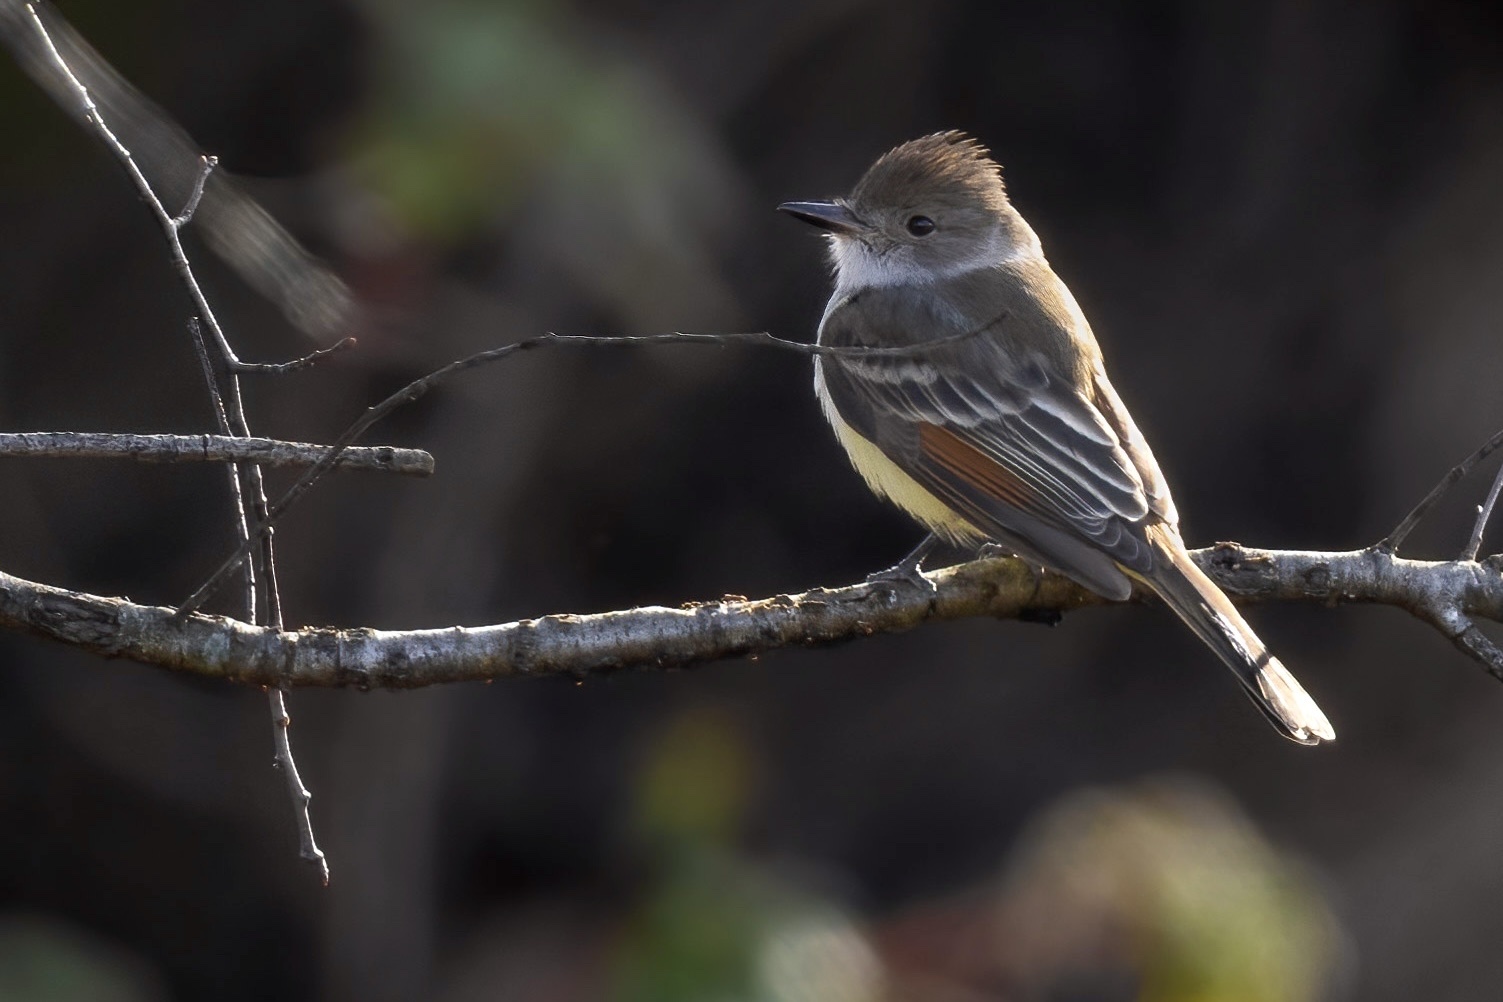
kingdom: Animalia
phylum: Chordata
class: Aves
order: Passeriformes
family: Tyrannidae
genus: Myiarchus
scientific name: Myiarchus cinerascens
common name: Ash-throated flycatcher
